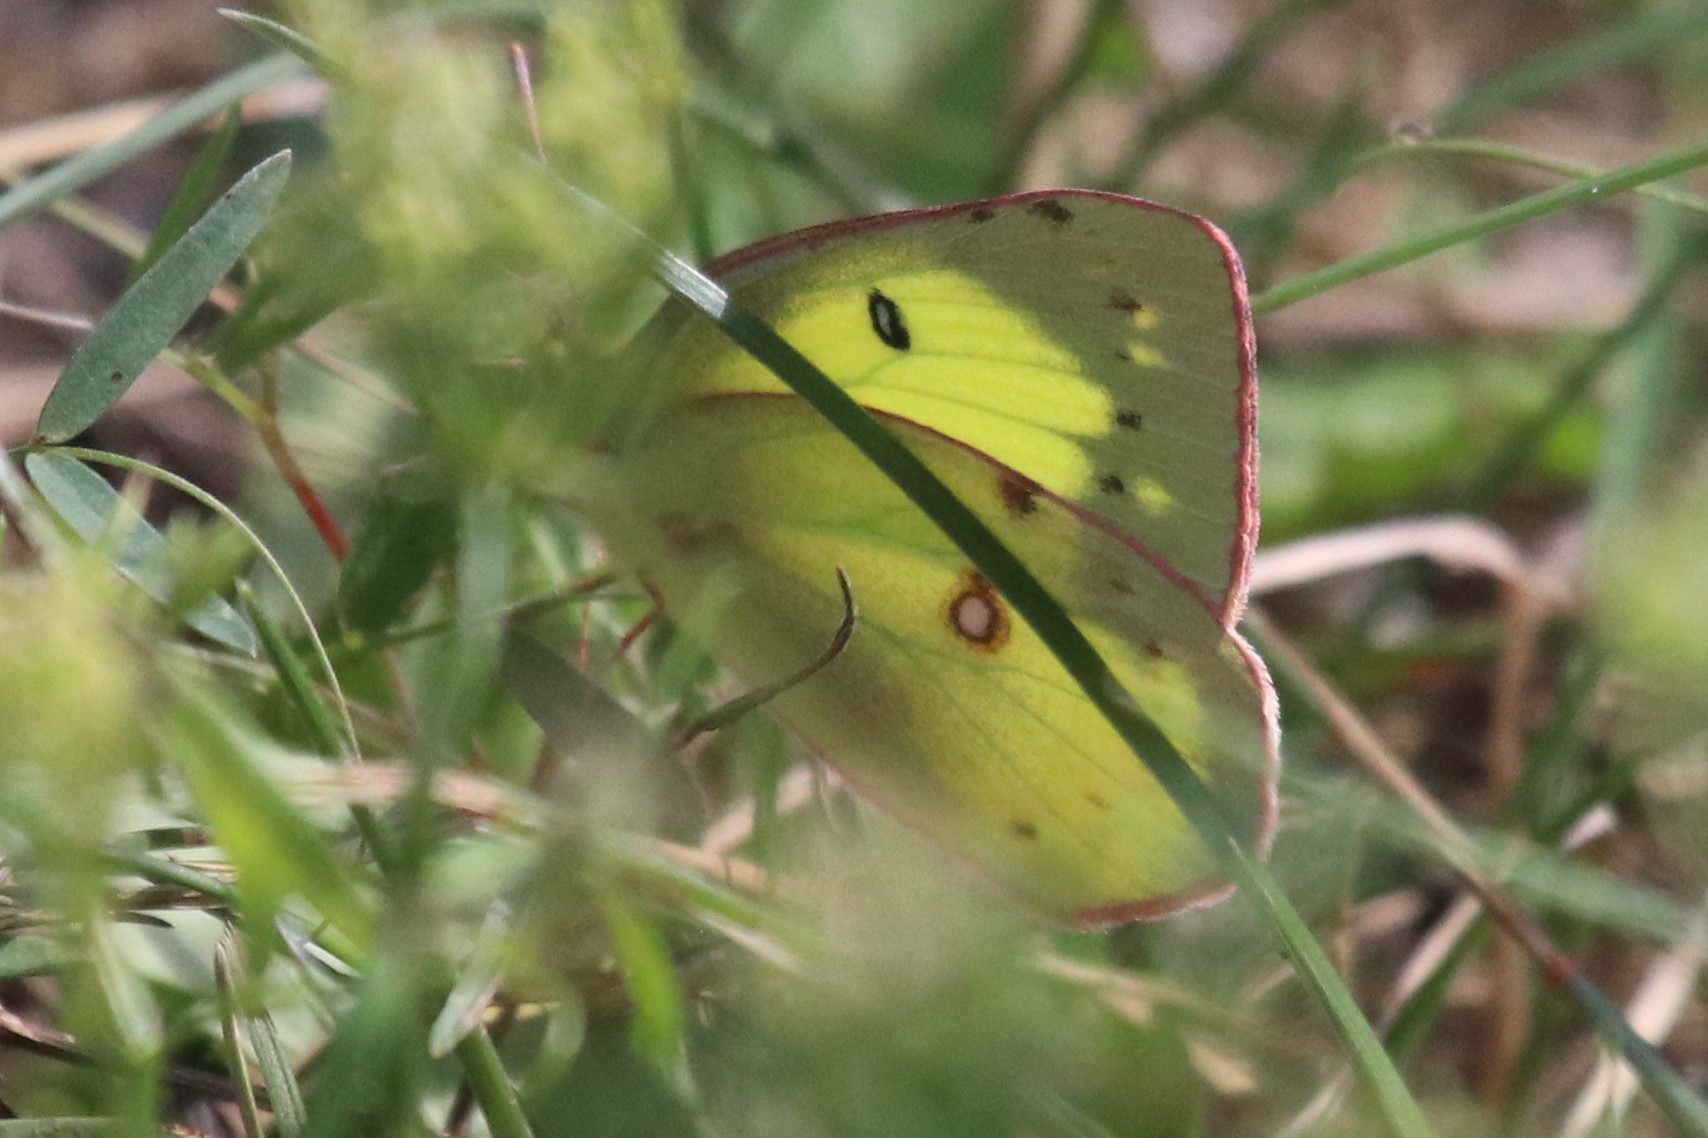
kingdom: Animalia
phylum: Arthropoda
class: Insecta
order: Lepidoptera
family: Pieridae
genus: Colias
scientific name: Colias philodice
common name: Clouded sulphur
